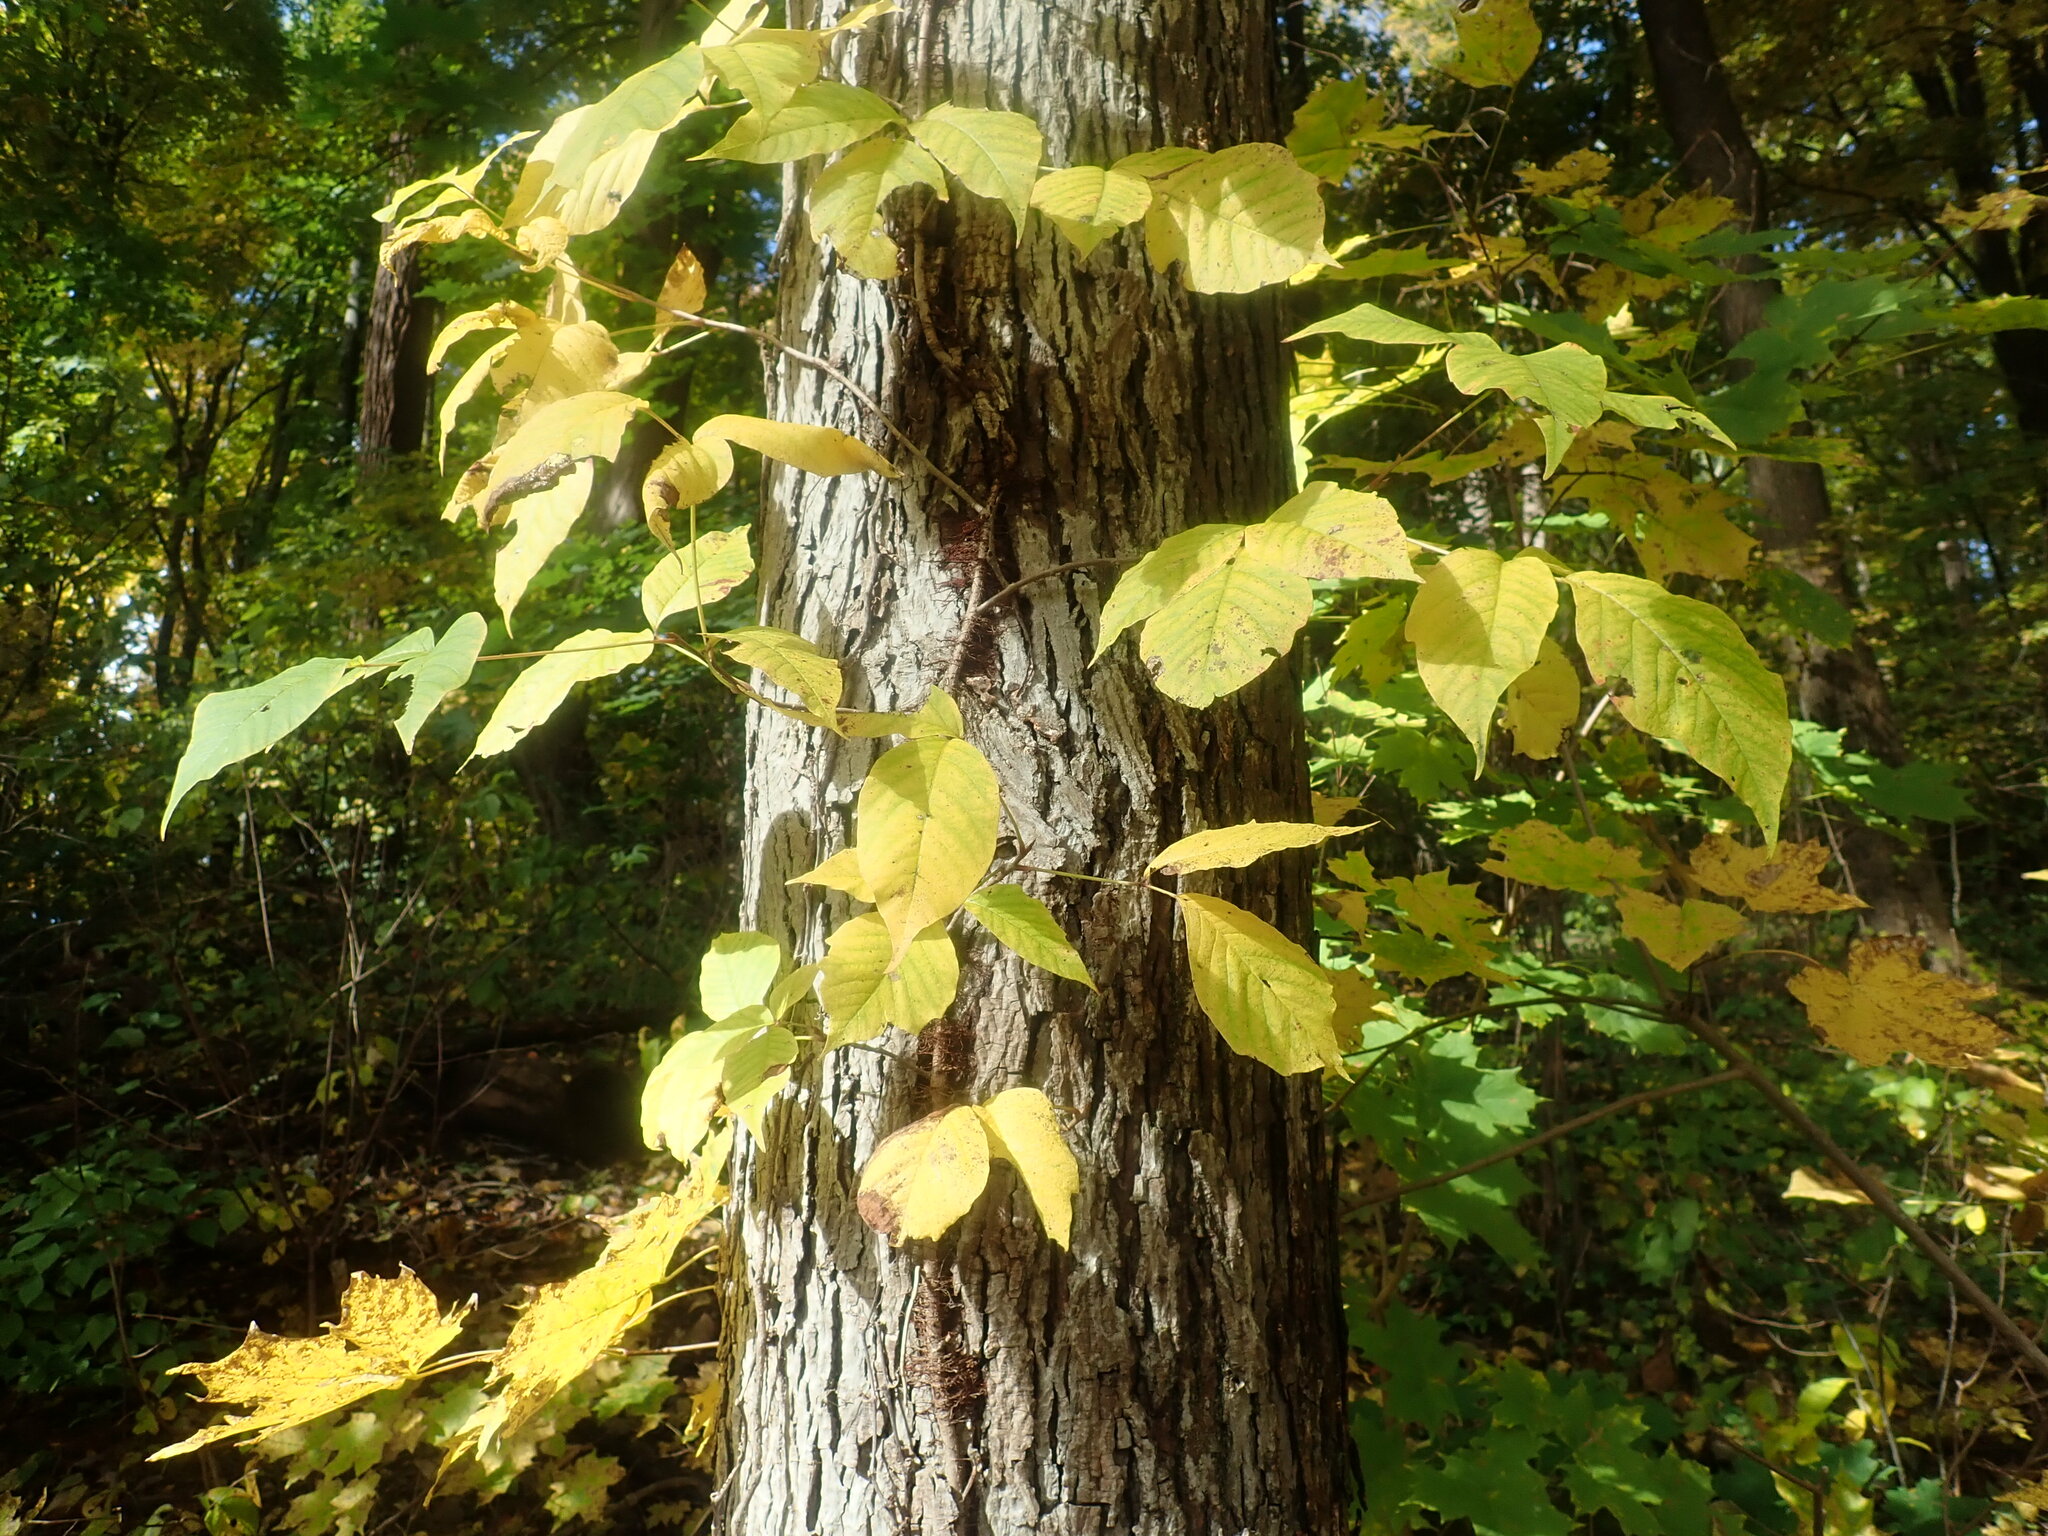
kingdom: Plantae
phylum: Tracheophyta
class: Magnoliopsida
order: Sapindales
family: Anacardiaceae
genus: Toxicodendron
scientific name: Toxicodendron radicans
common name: Poison ivy
